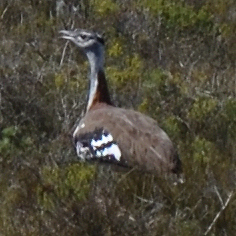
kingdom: Animalia
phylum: Chordata
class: Aves
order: Otidiformes
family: Otididae
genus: Neotis
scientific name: Neotis denhami
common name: Denham's bustard
